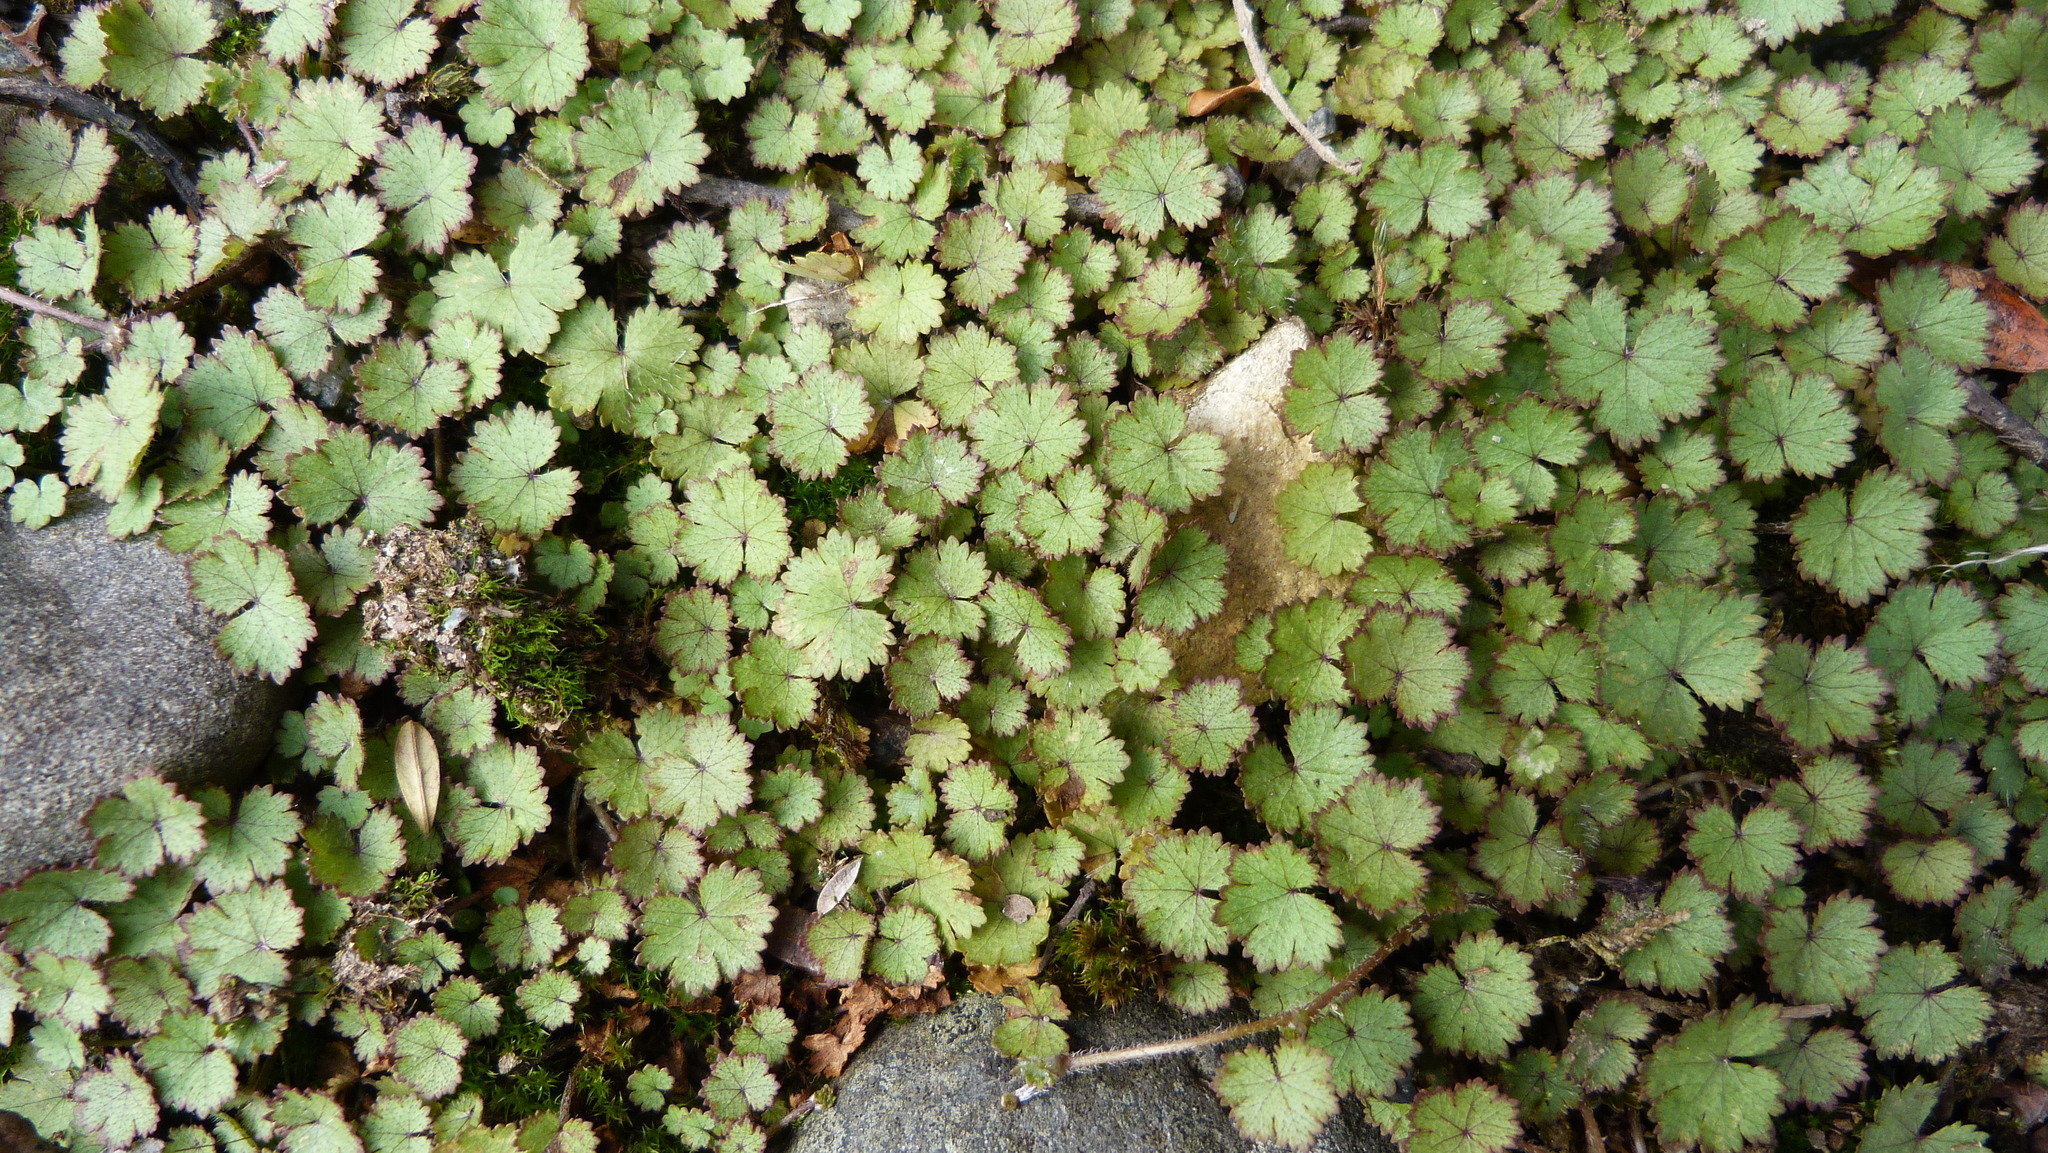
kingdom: Plantae
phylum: Tracheophyta
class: Magnoliopsida
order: Apiales
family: Araliaceae
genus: Hydrocotyle
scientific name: Hydrocotyle moschata
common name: Hairy pennywort
